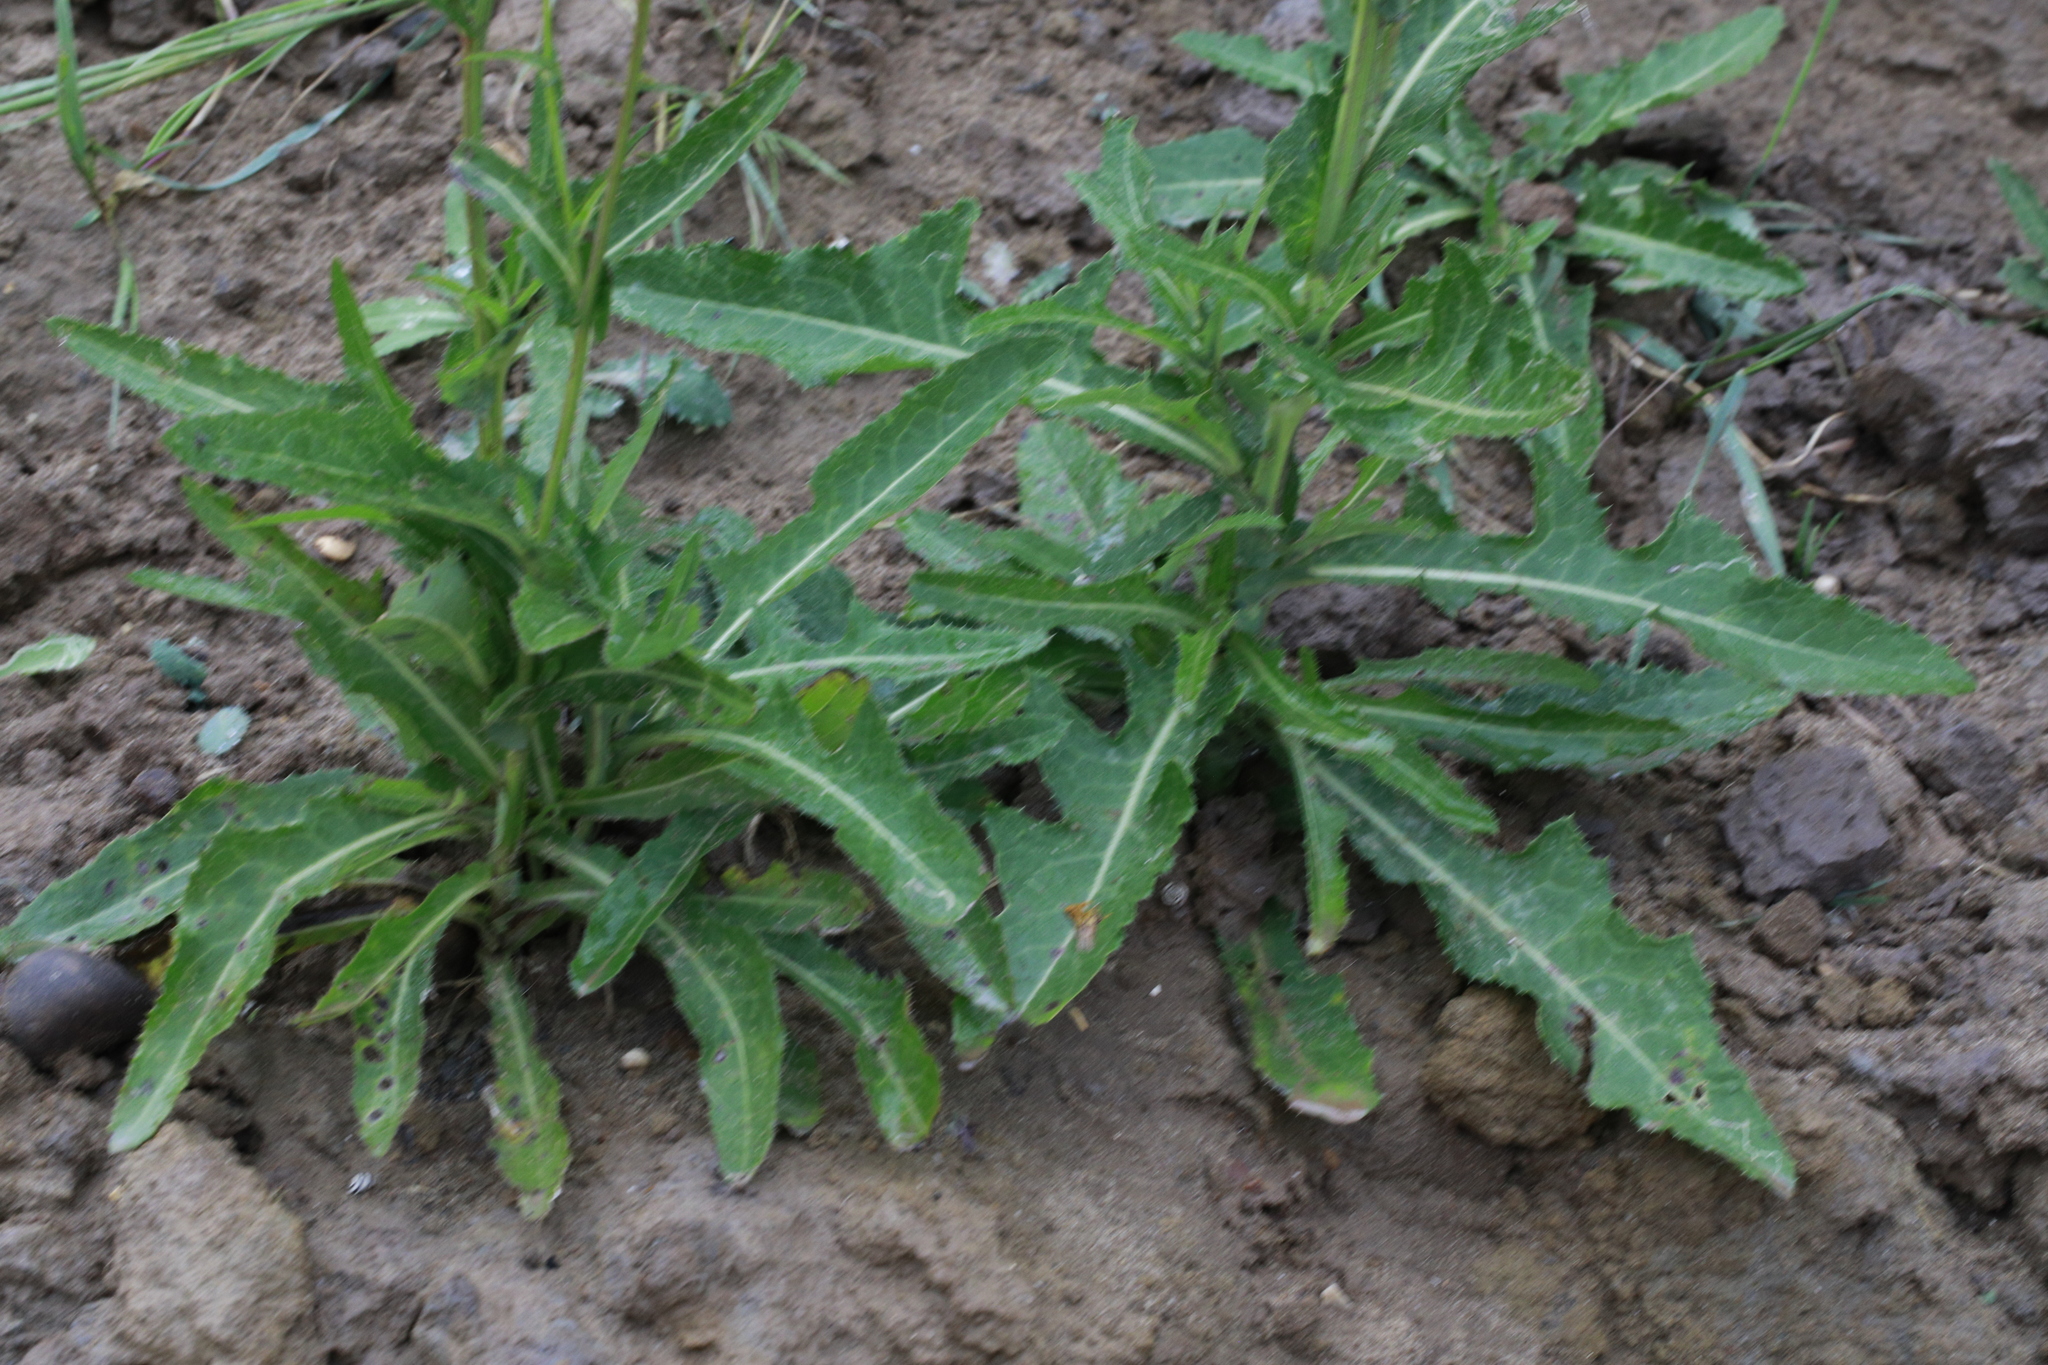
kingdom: Plantae
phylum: Tracheophyta
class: Magnoliopsida
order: Asterales
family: Asteraceae
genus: Sonchus
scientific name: Sonchus arvensis
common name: Perennial sow-thistle
